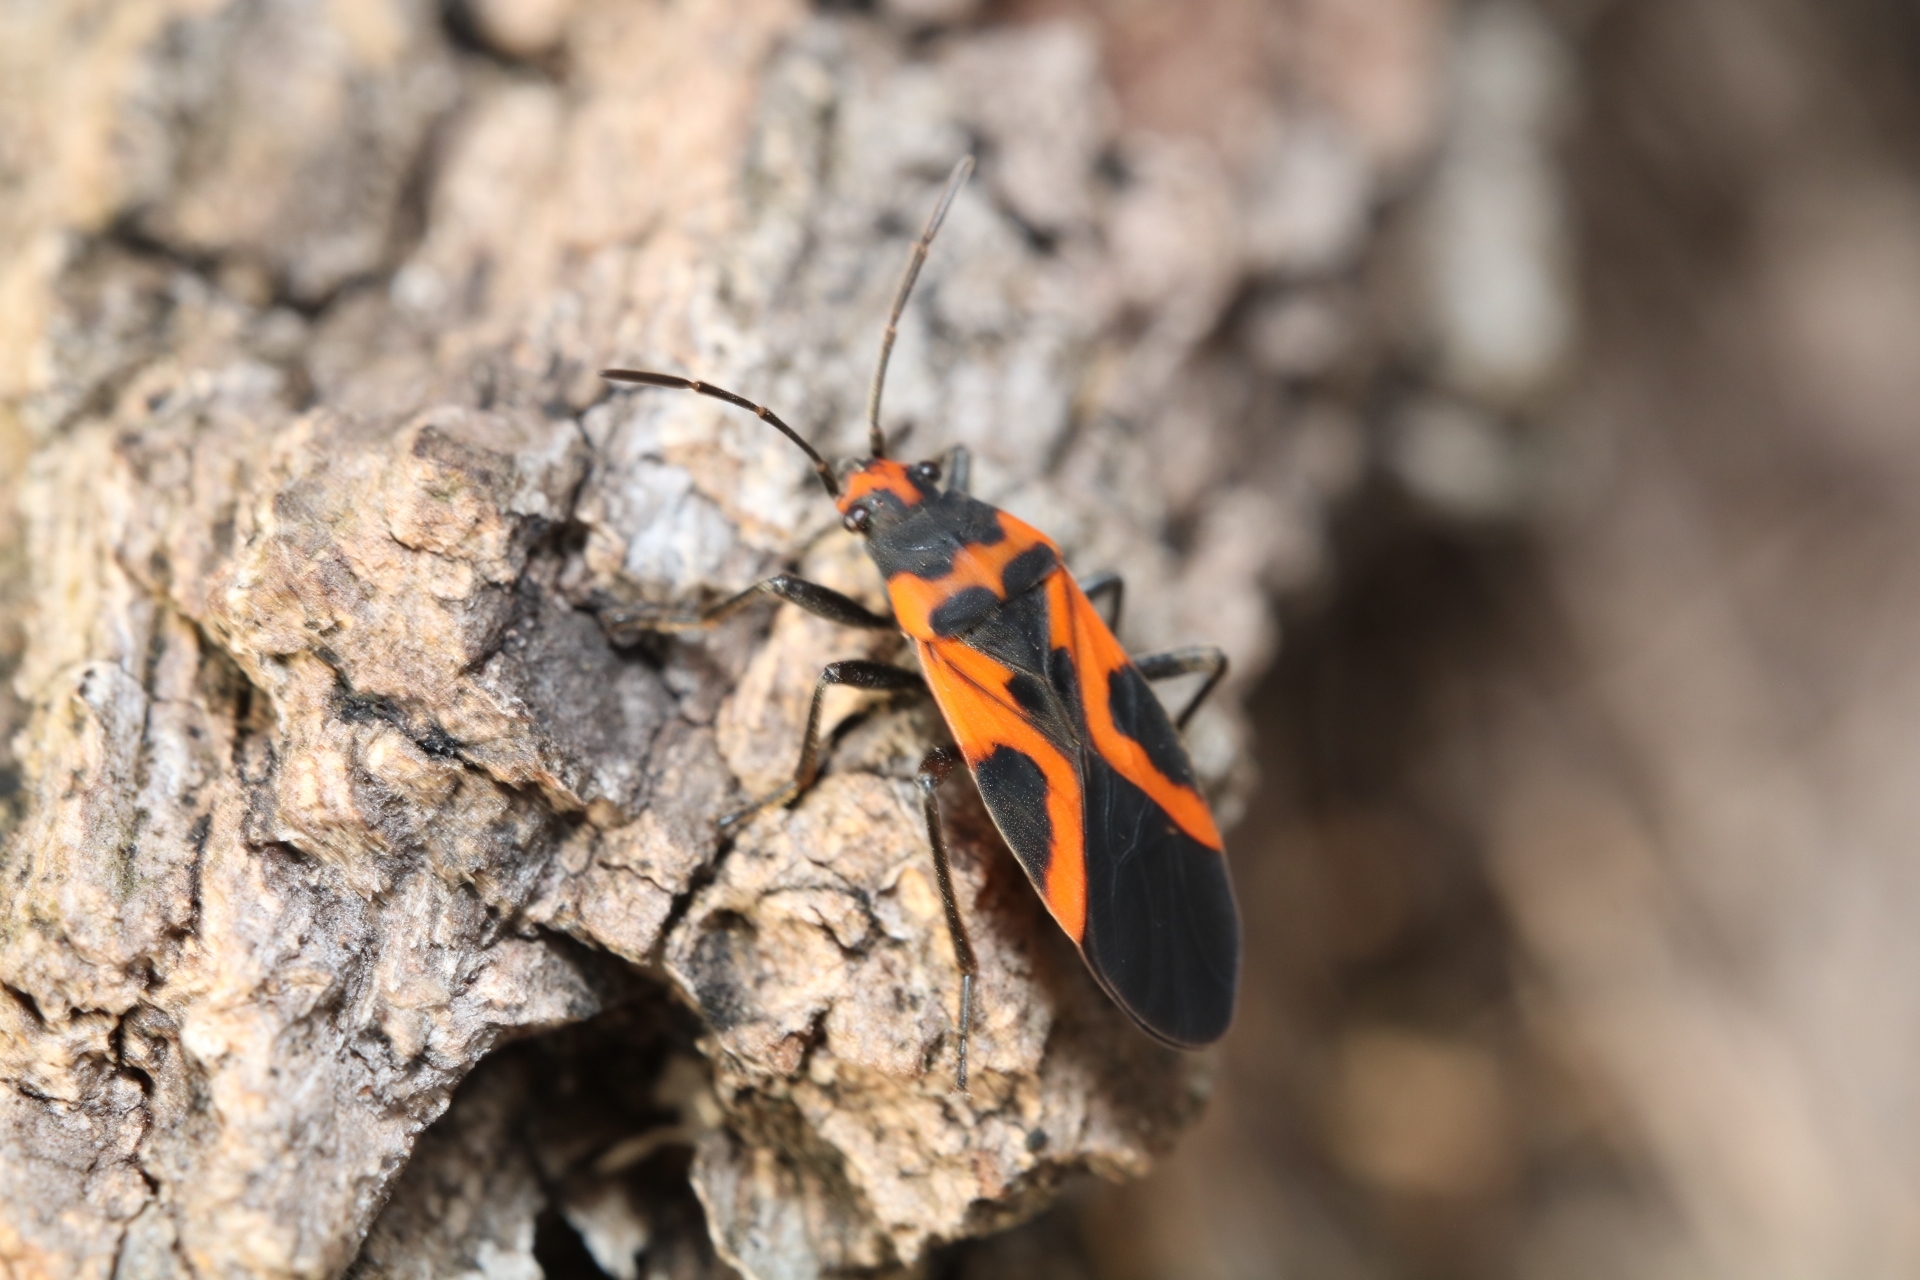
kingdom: Animalia
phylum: Arthropoda
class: Insecta
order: Hemiptera
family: Lygaeidae
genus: Lygaeus
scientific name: Lygaeus turcicus
